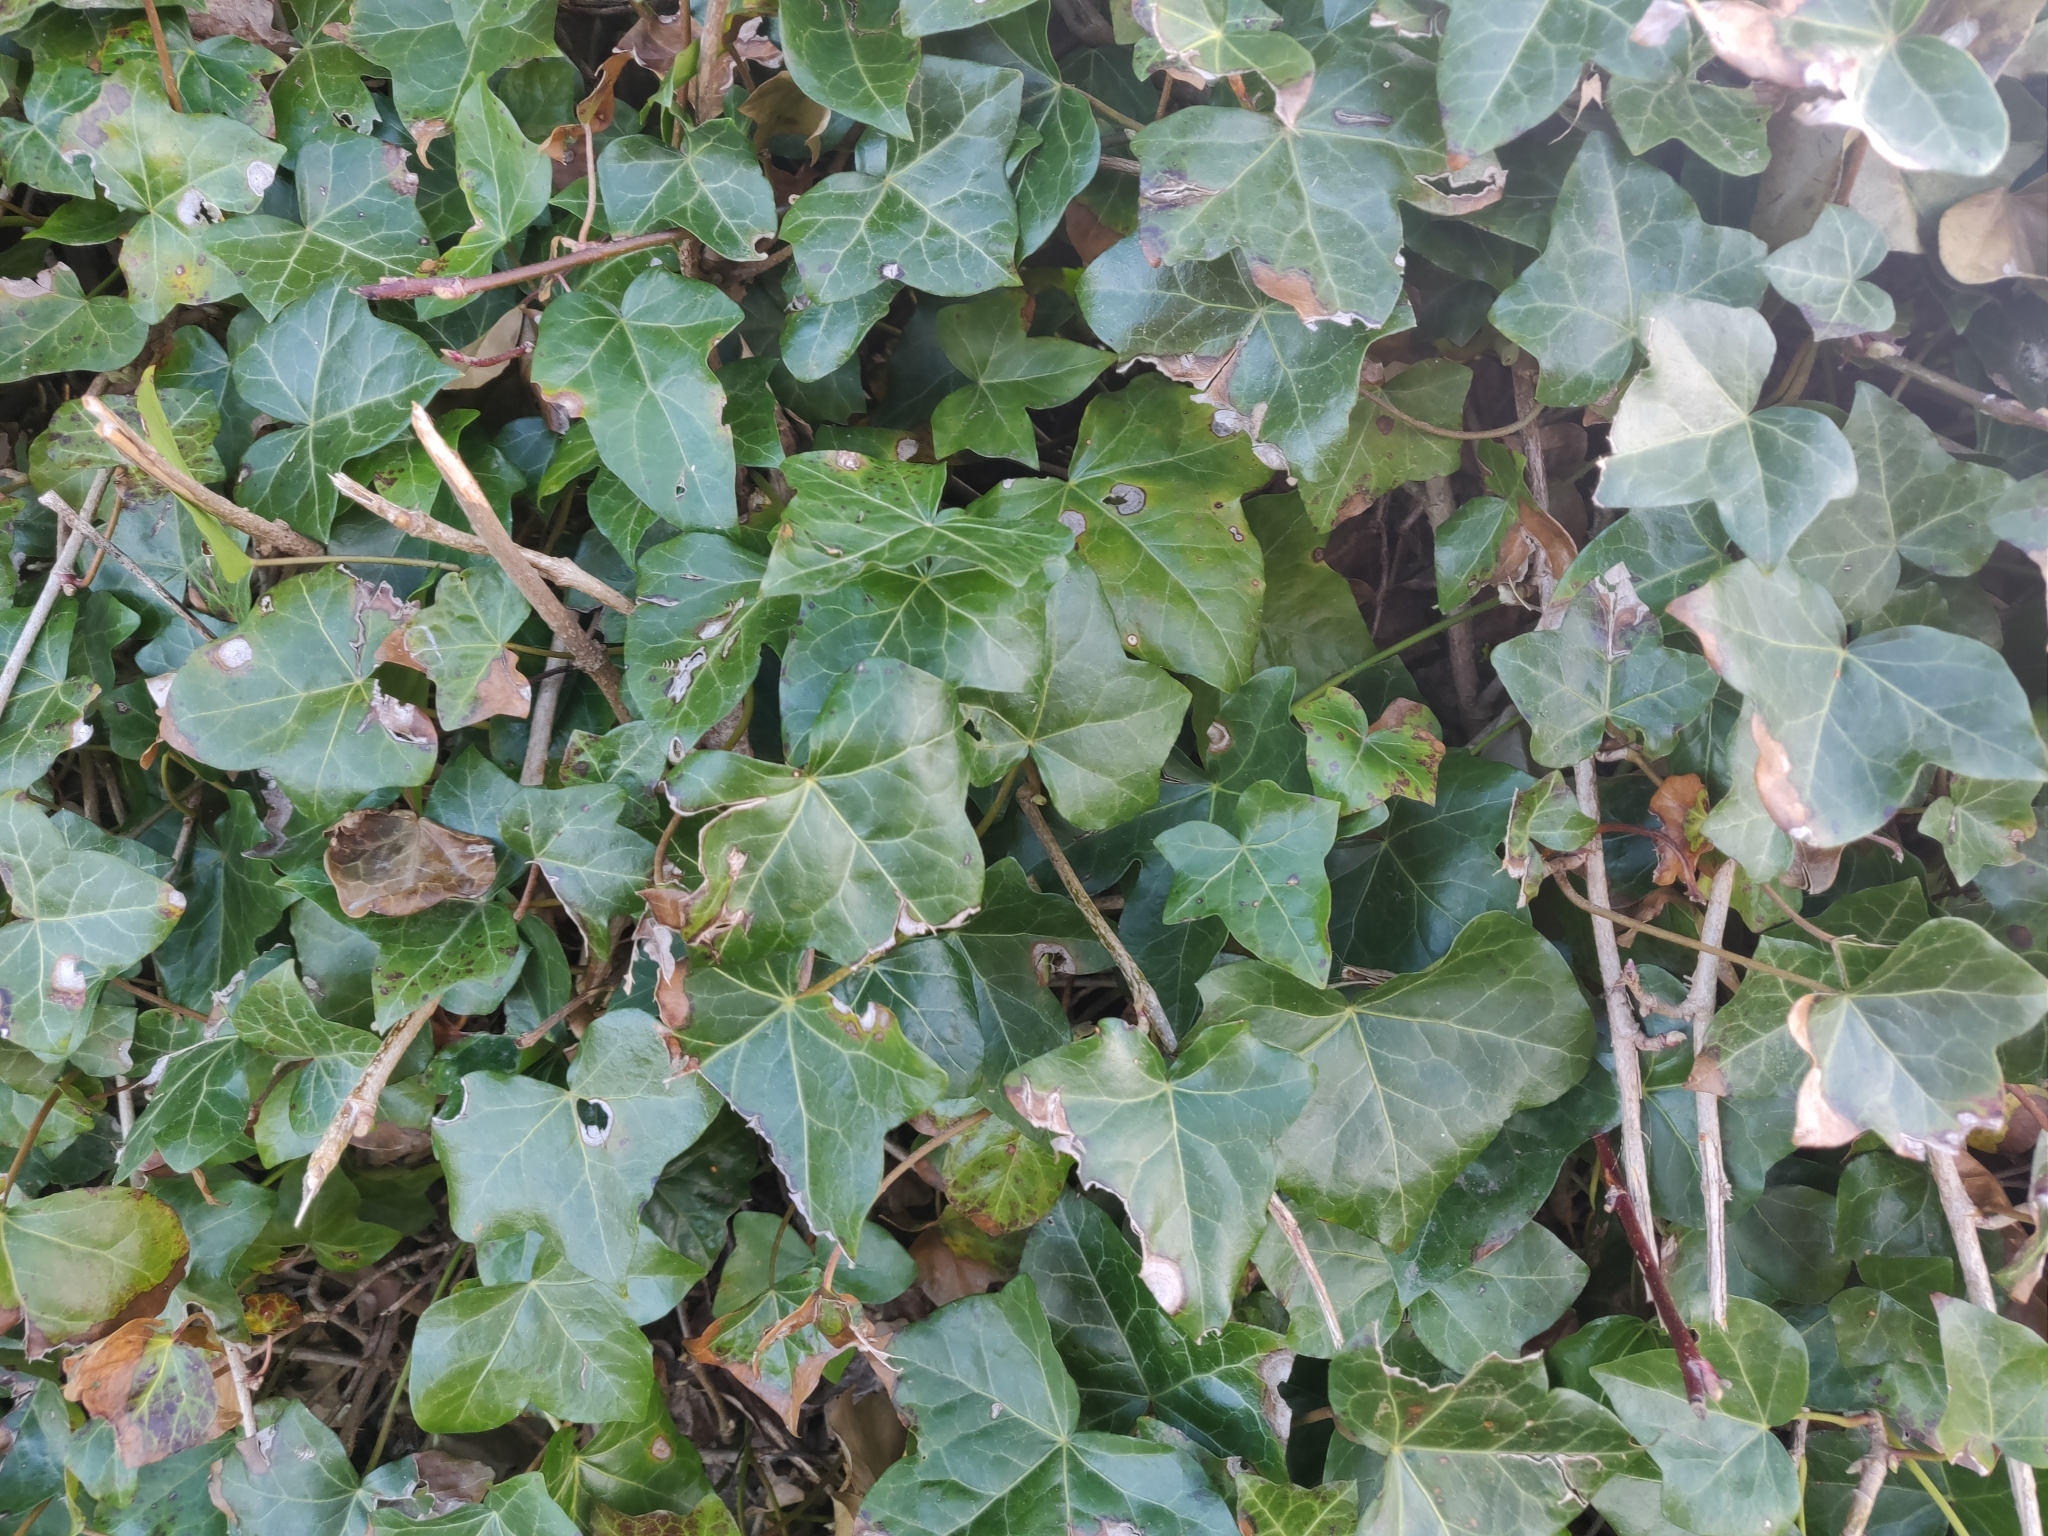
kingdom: Plantae
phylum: Tracheophyta
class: Magnoliopsida
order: Apiales
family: Araliaceae
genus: Hedera
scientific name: Hedera helix
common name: Ivy
